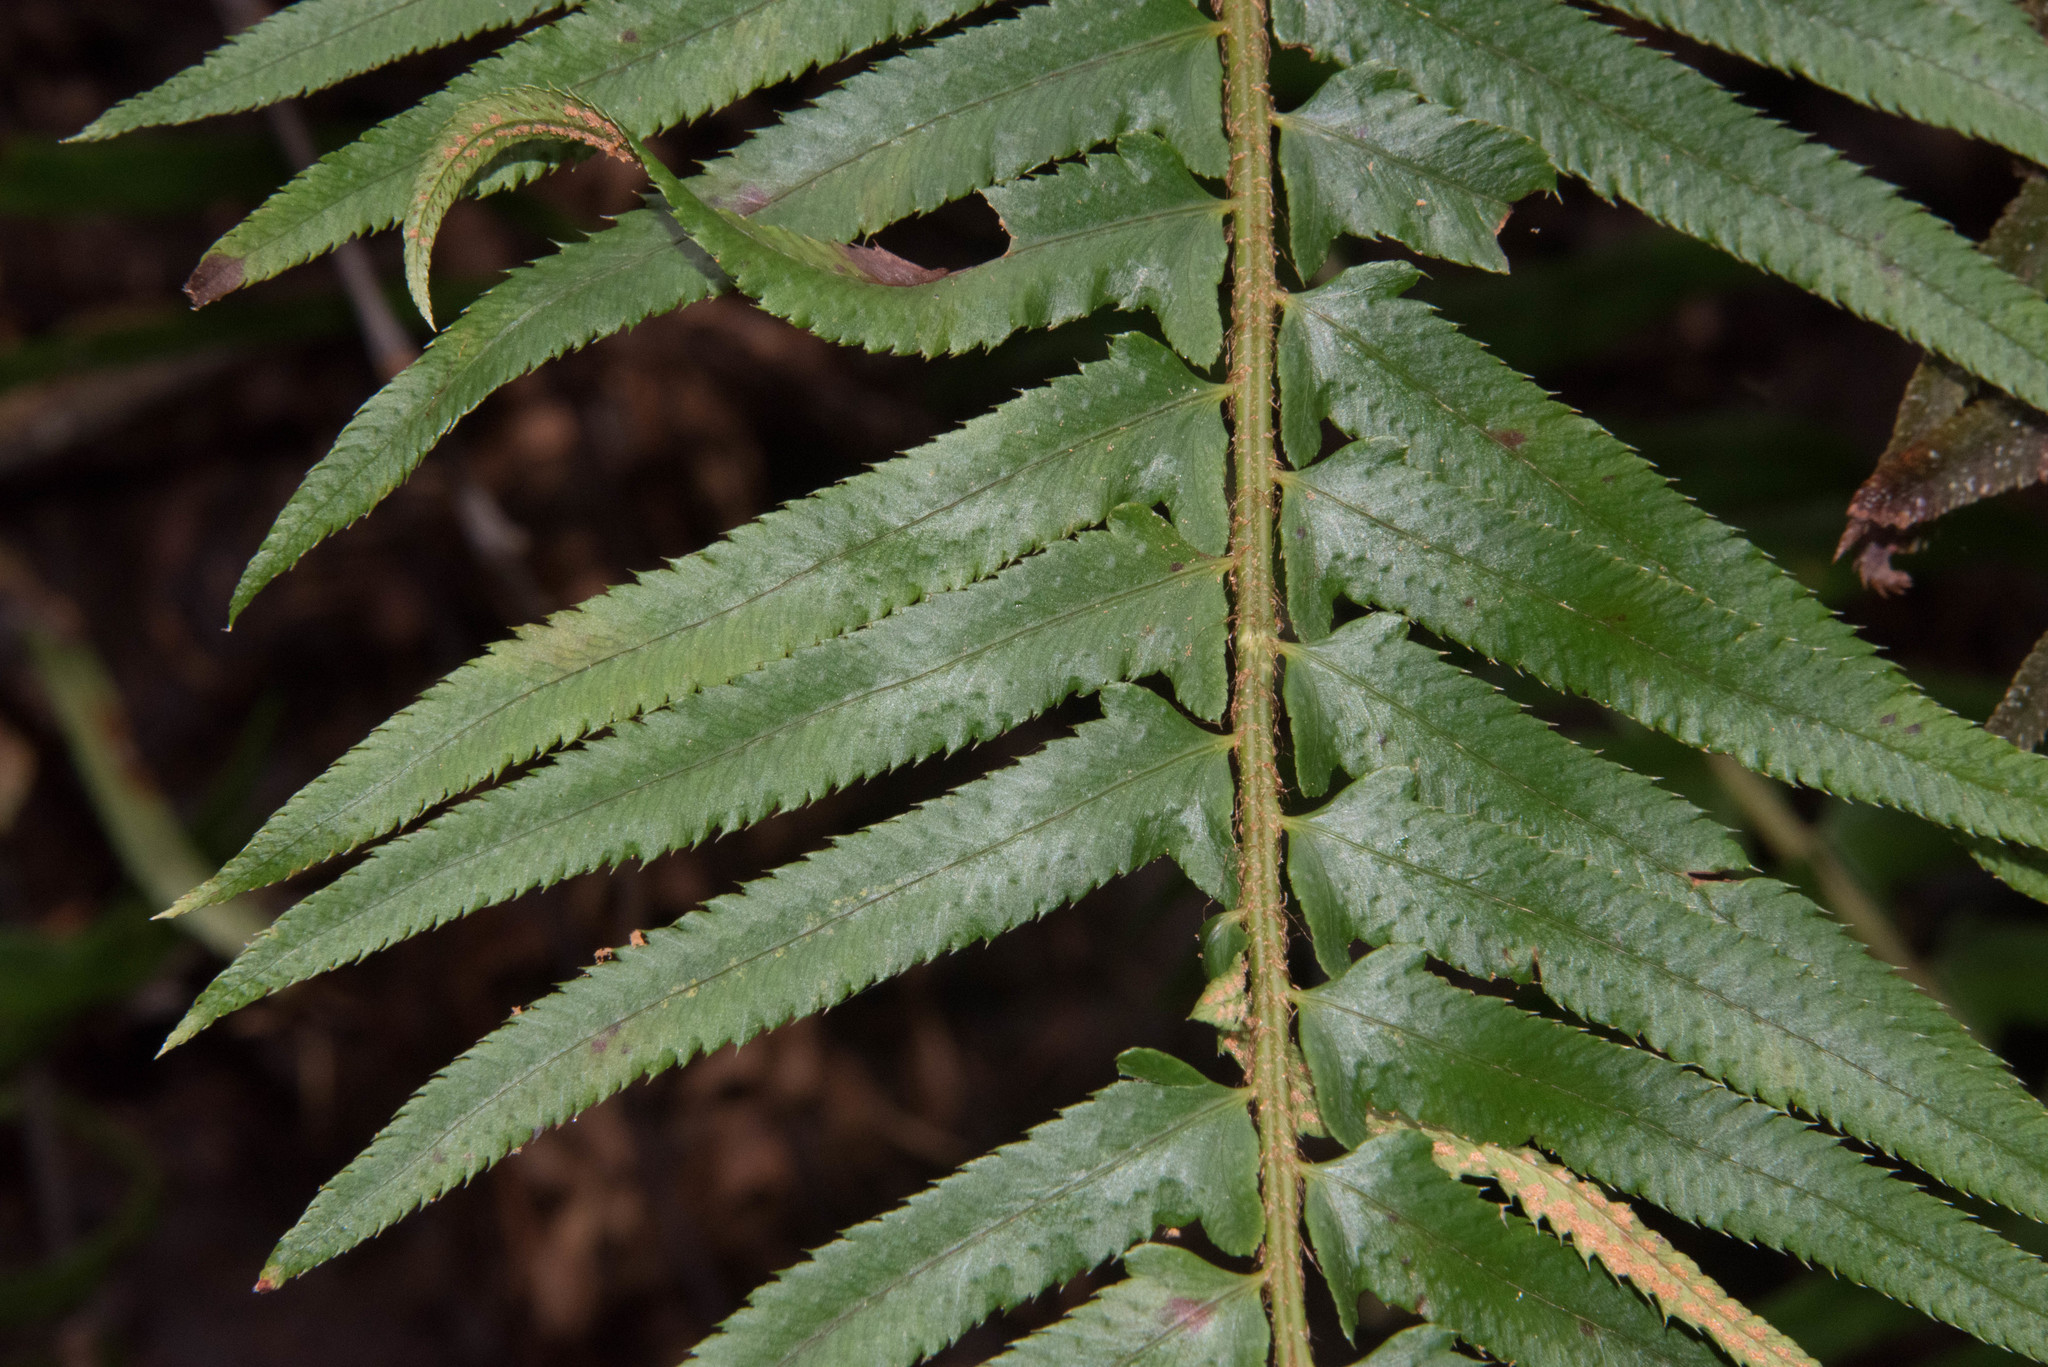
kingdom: Plantae
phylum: Tracheophyta
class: Polypodiopsida
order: Polypodiales
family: Dryopteridaceae
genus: Polystichum
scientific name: Polystichum munitum
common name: Western sword-fern
